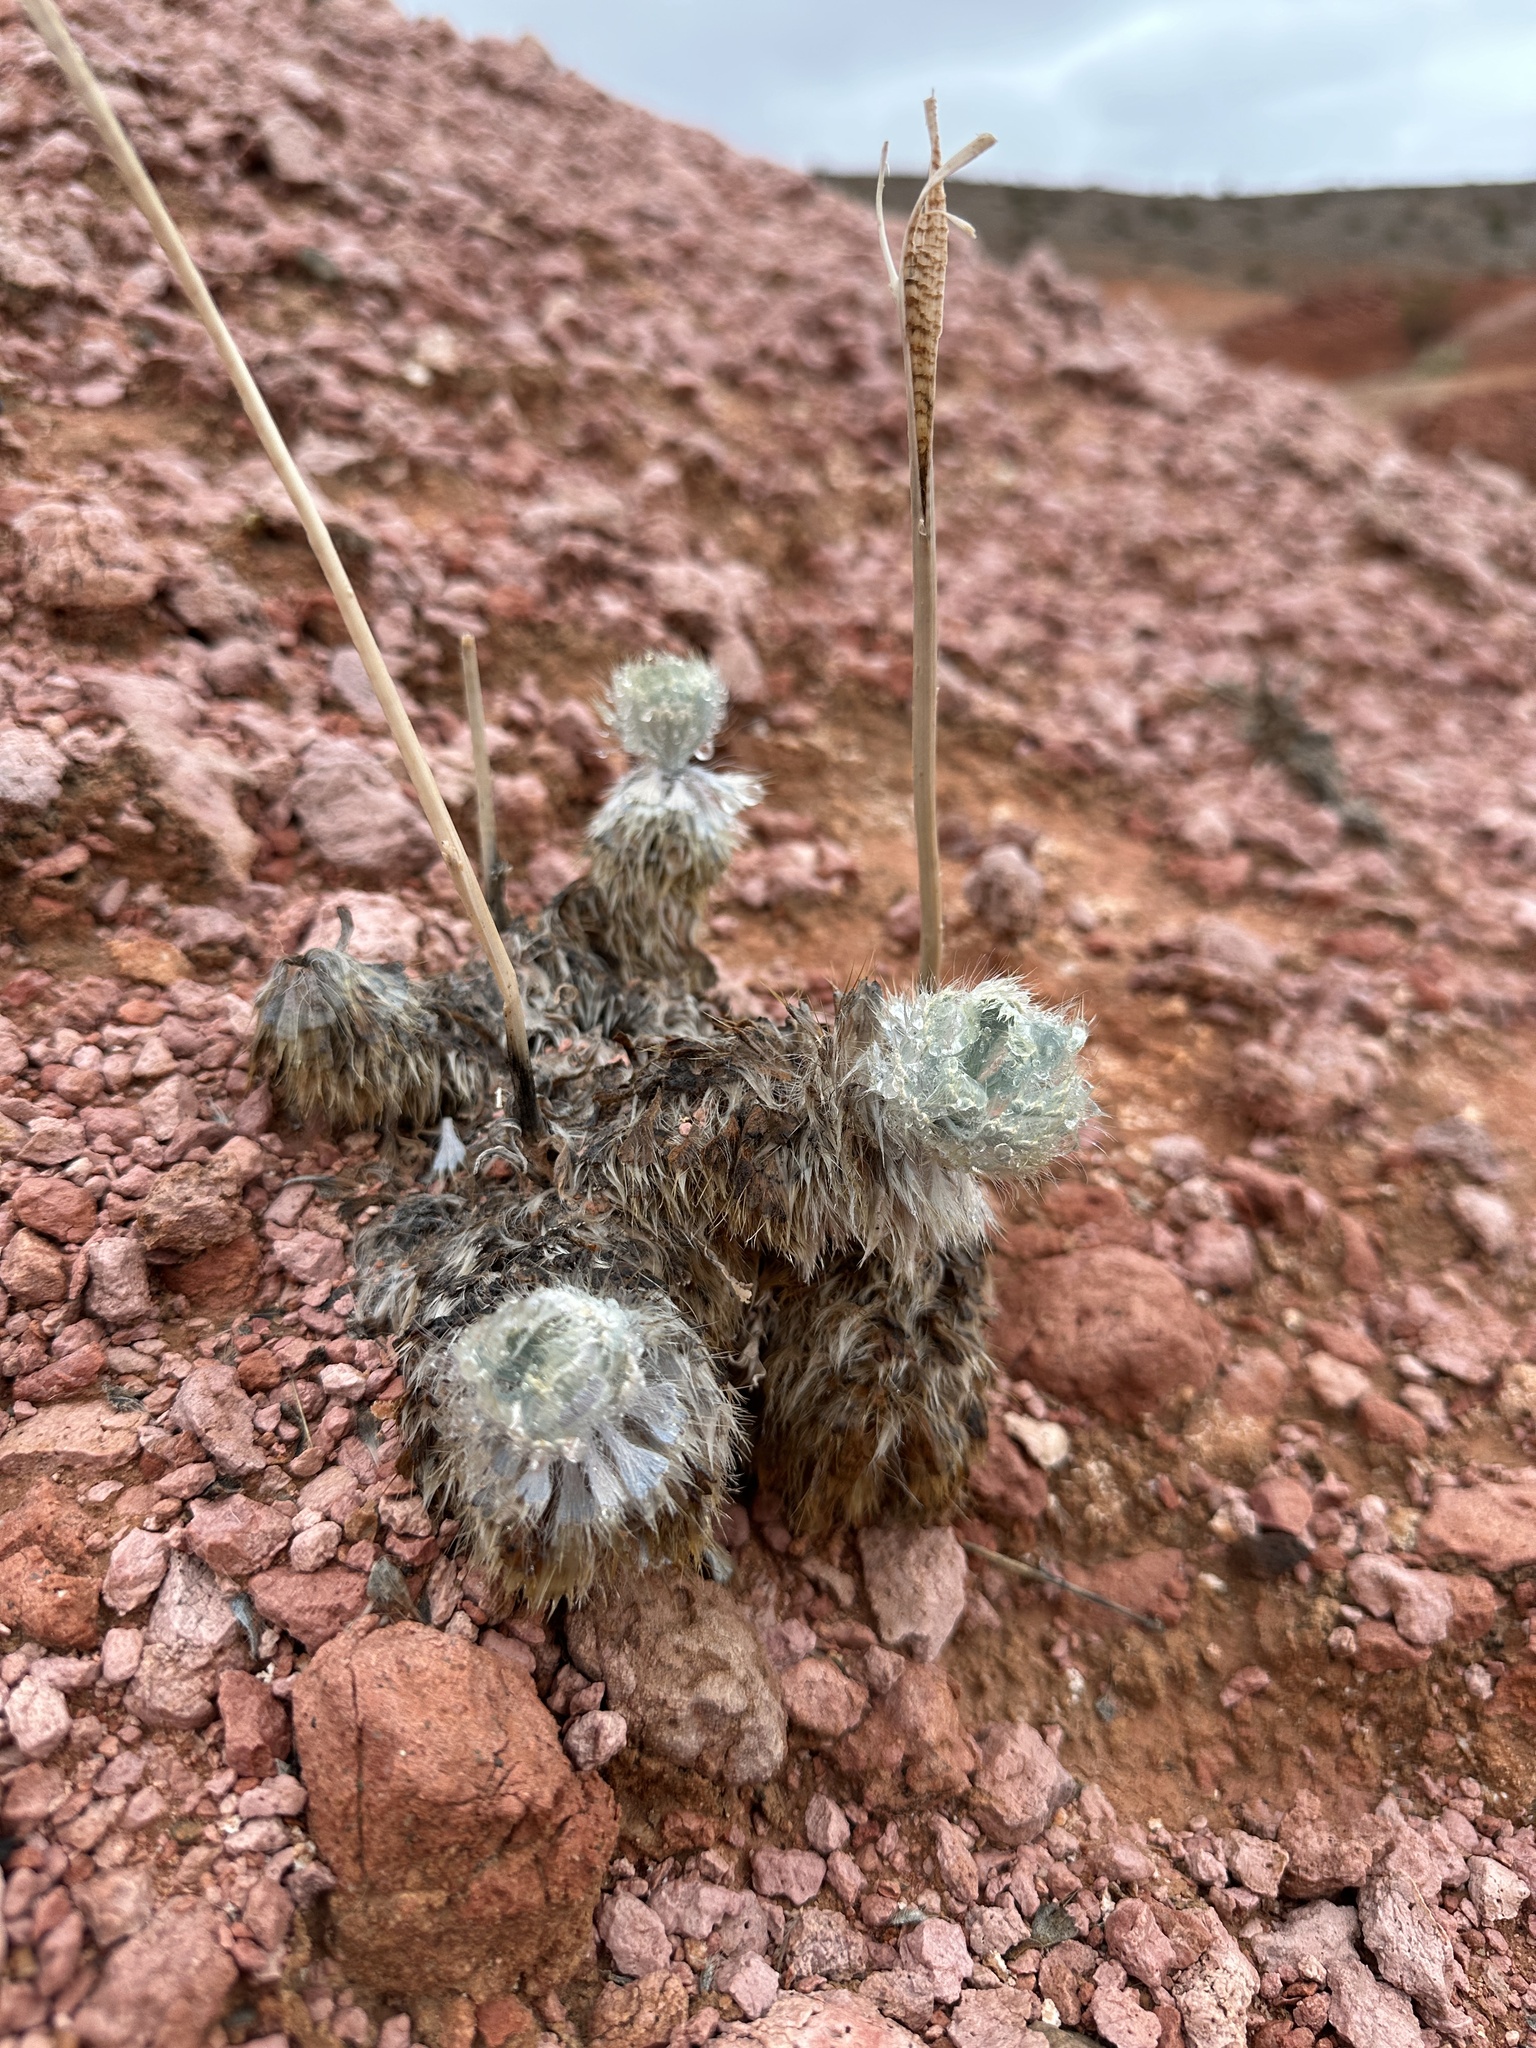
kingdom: Plantae
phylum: Tracheophyta
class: Magnoliopsida
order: Ranunculales
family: Papaveraceae
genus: Arctomecon
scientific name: Arctomecon californicum
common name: Golden bearclaw-poppy
